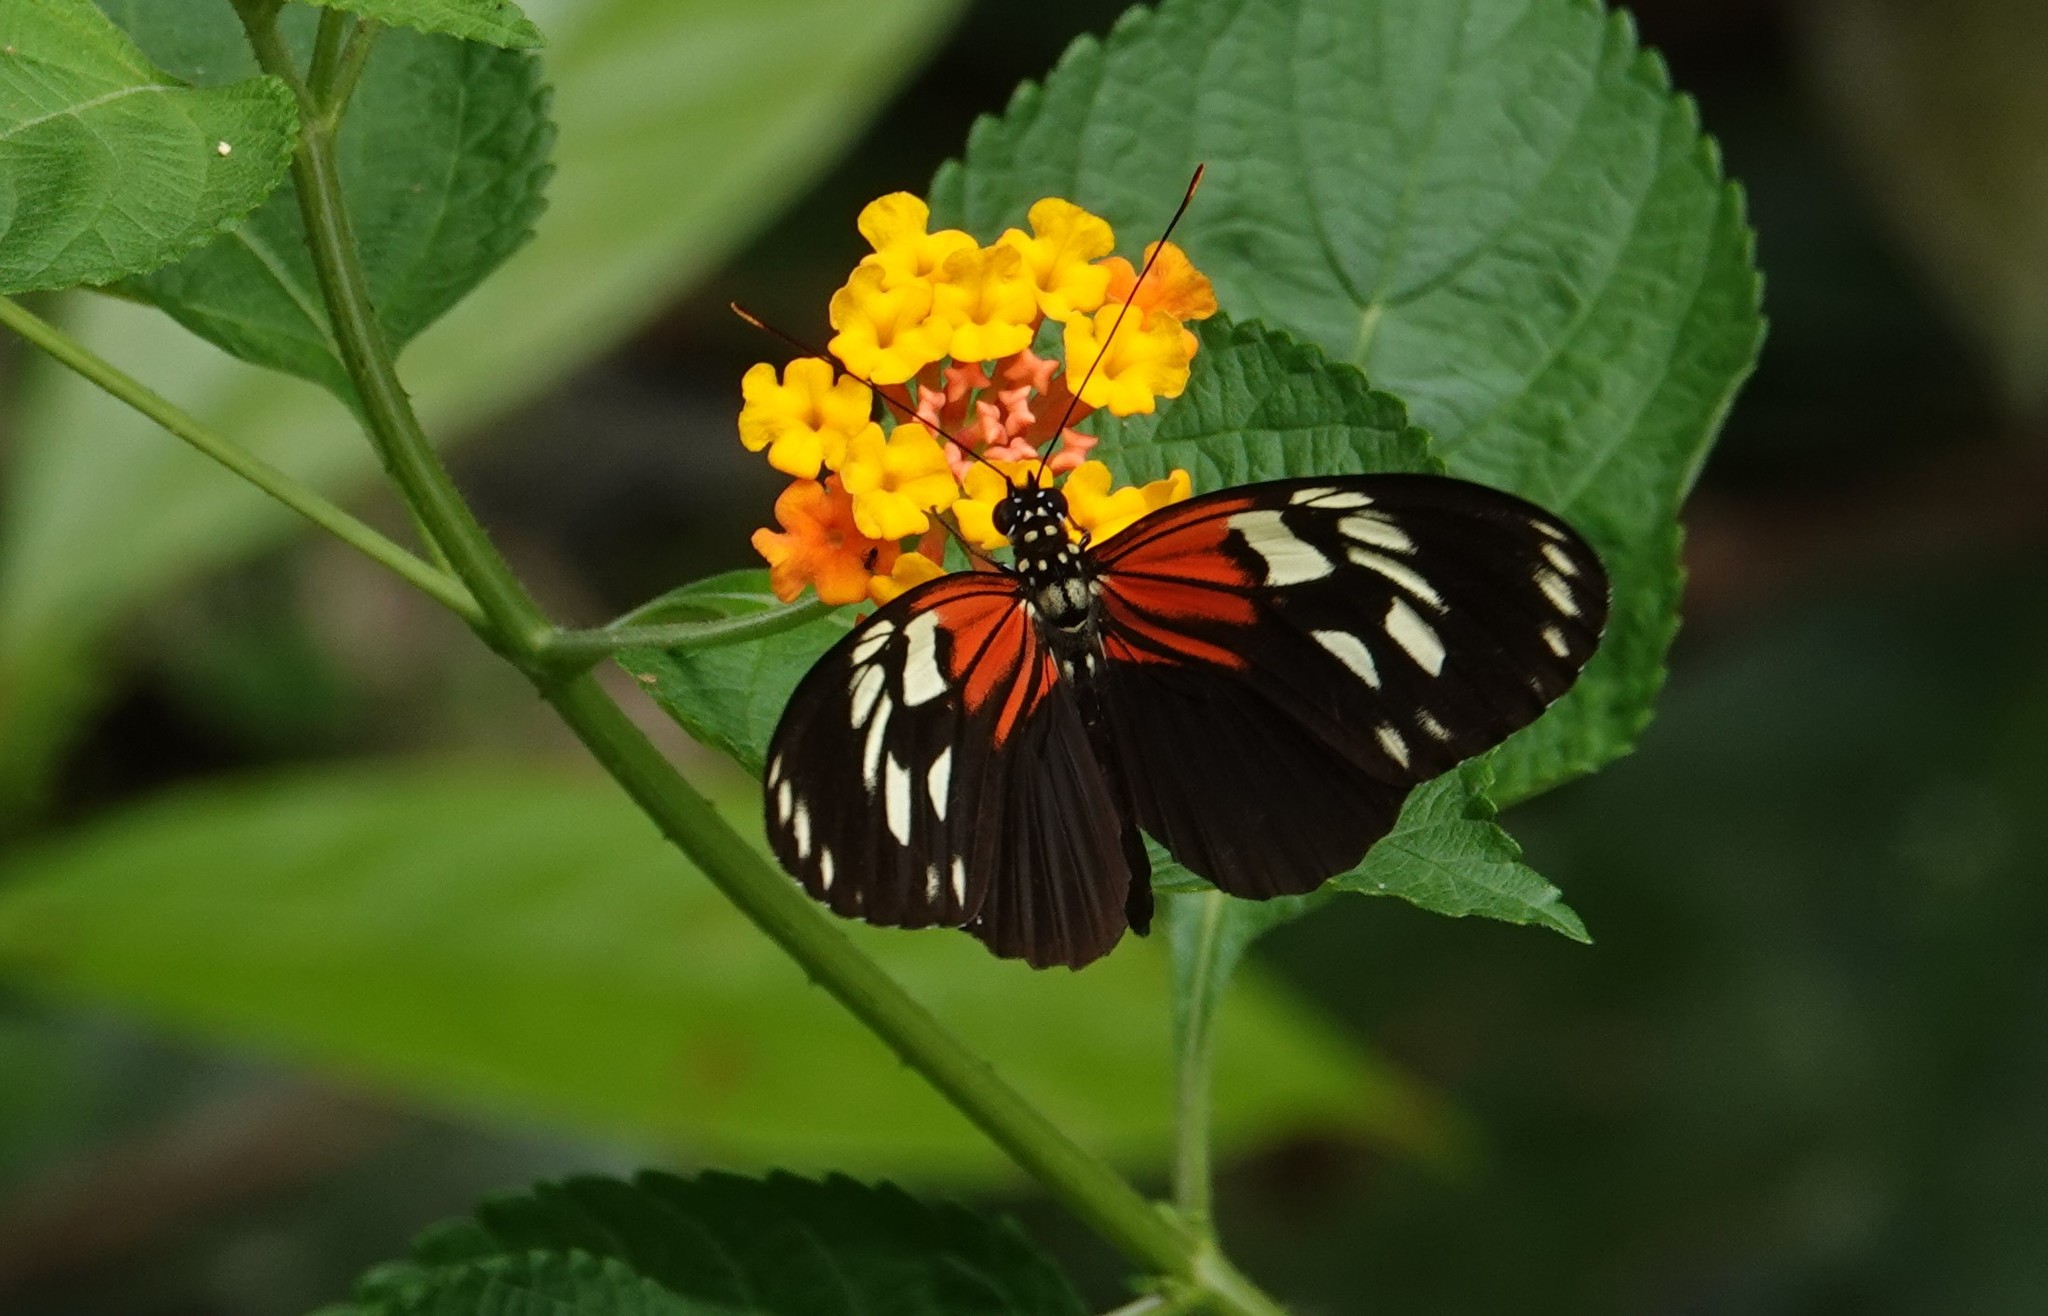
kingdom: Animalia
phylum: Arthropoda
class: Insecta
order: Lepidoptera
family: Nymphalidae
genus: Heliconius
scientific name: Heliconius elevatus
